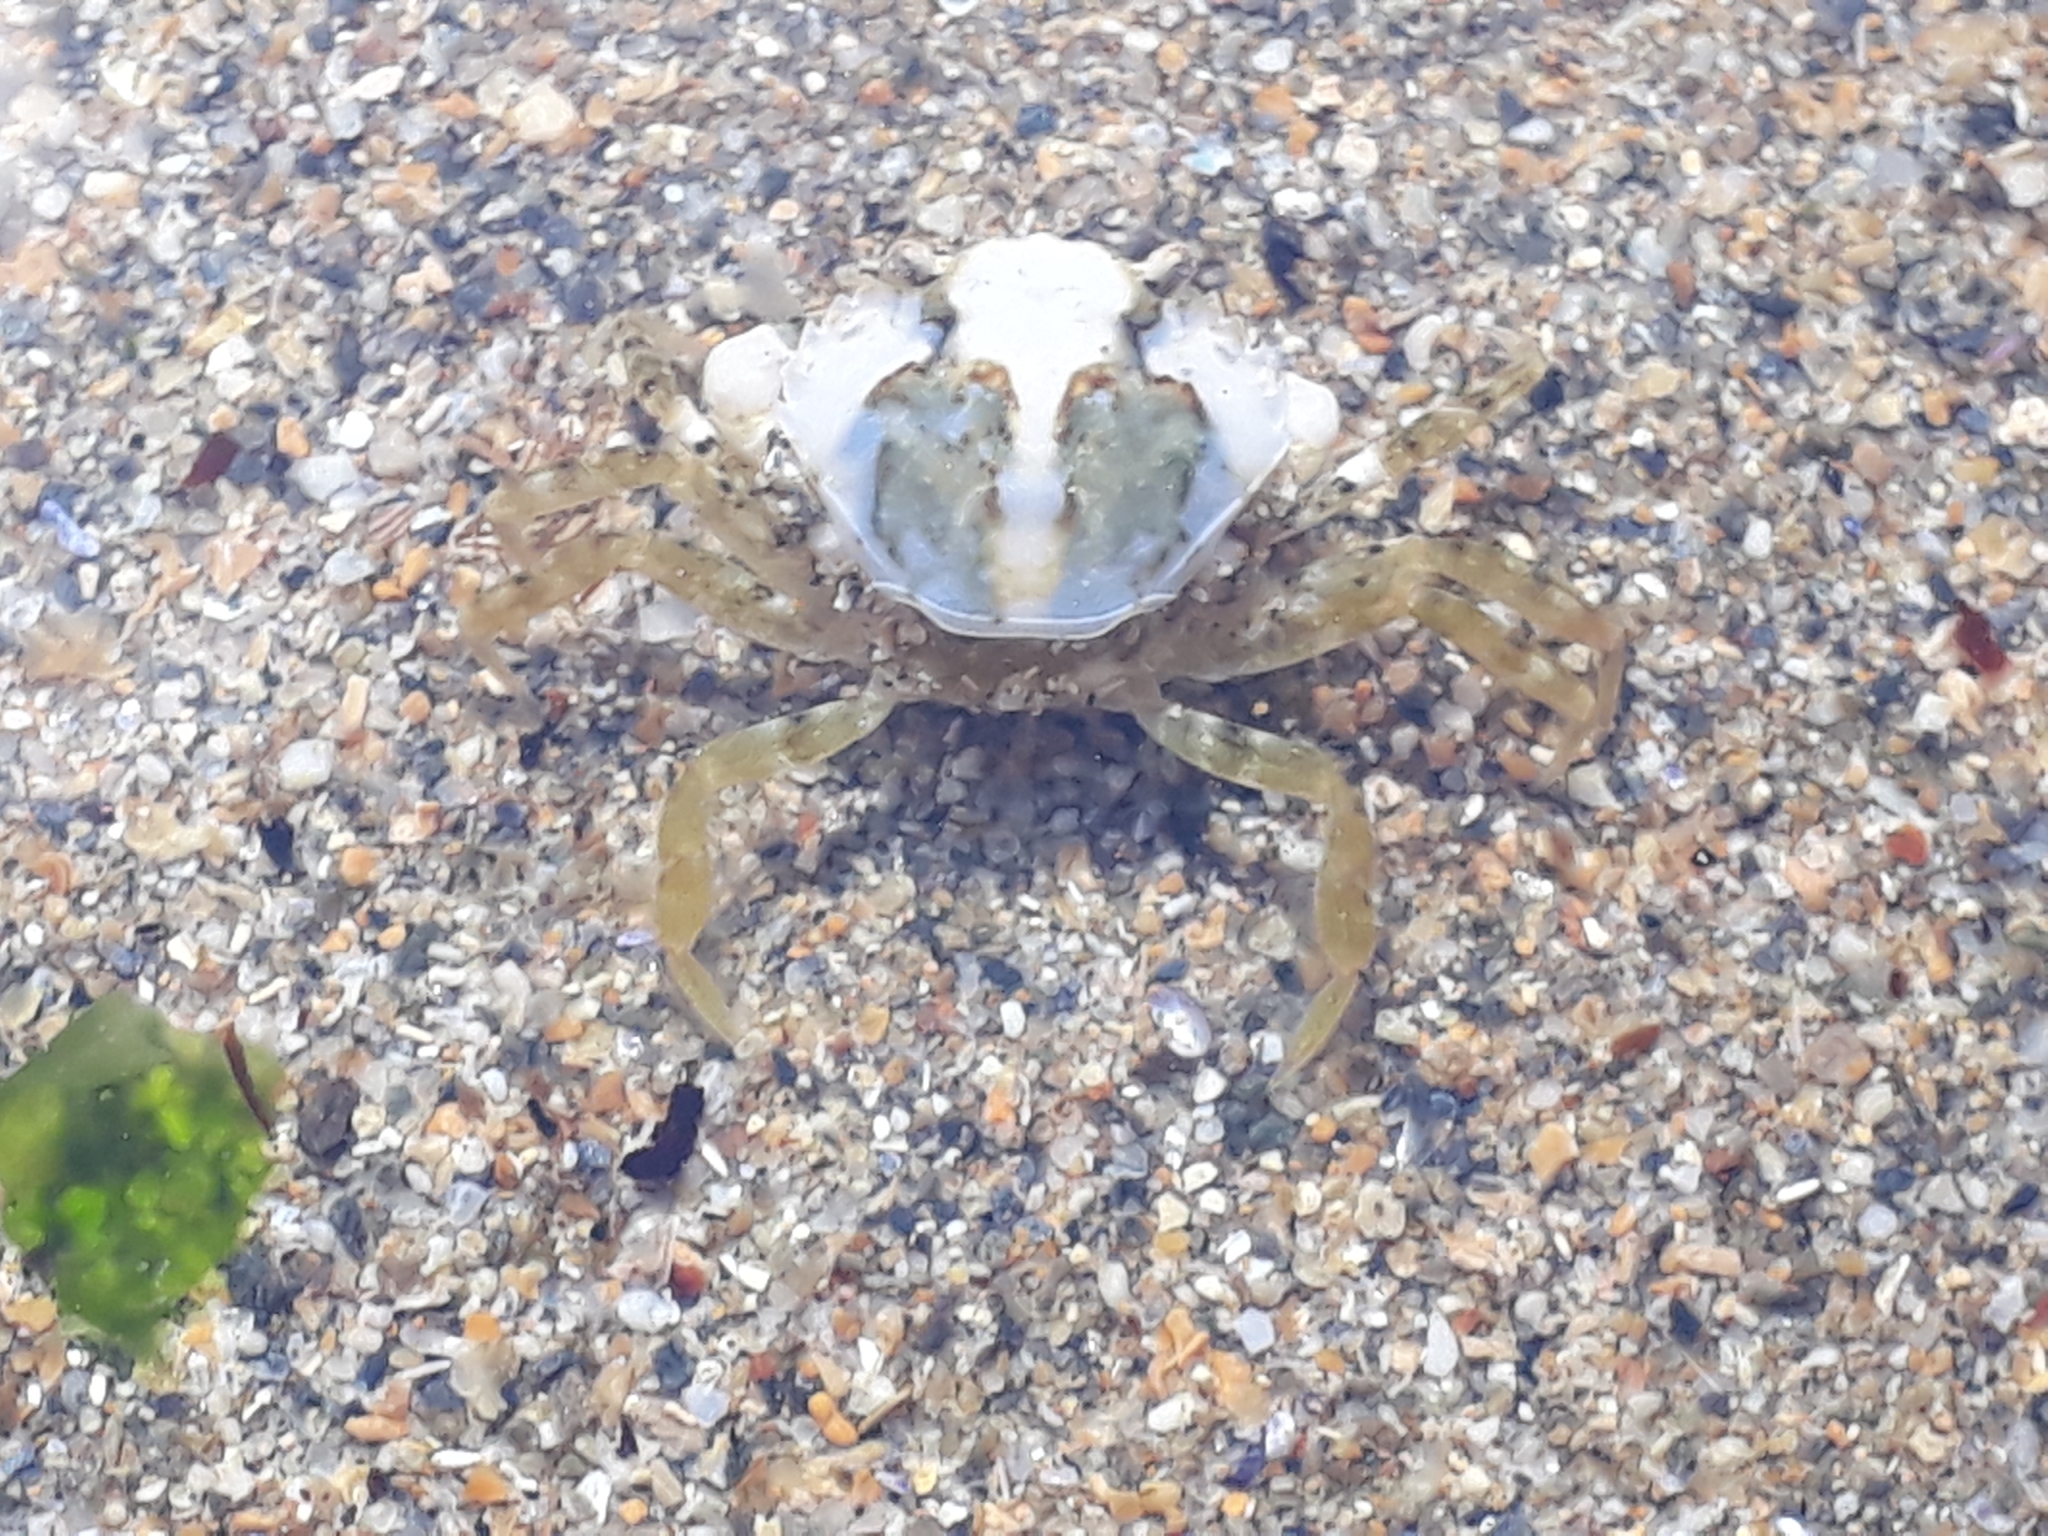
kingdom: Animalia
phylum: Arthropoda
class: Malacostraca
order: Decapoda
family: Carcinidae
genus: Carcinus
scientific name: Carcinus maenas
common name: European green crab
